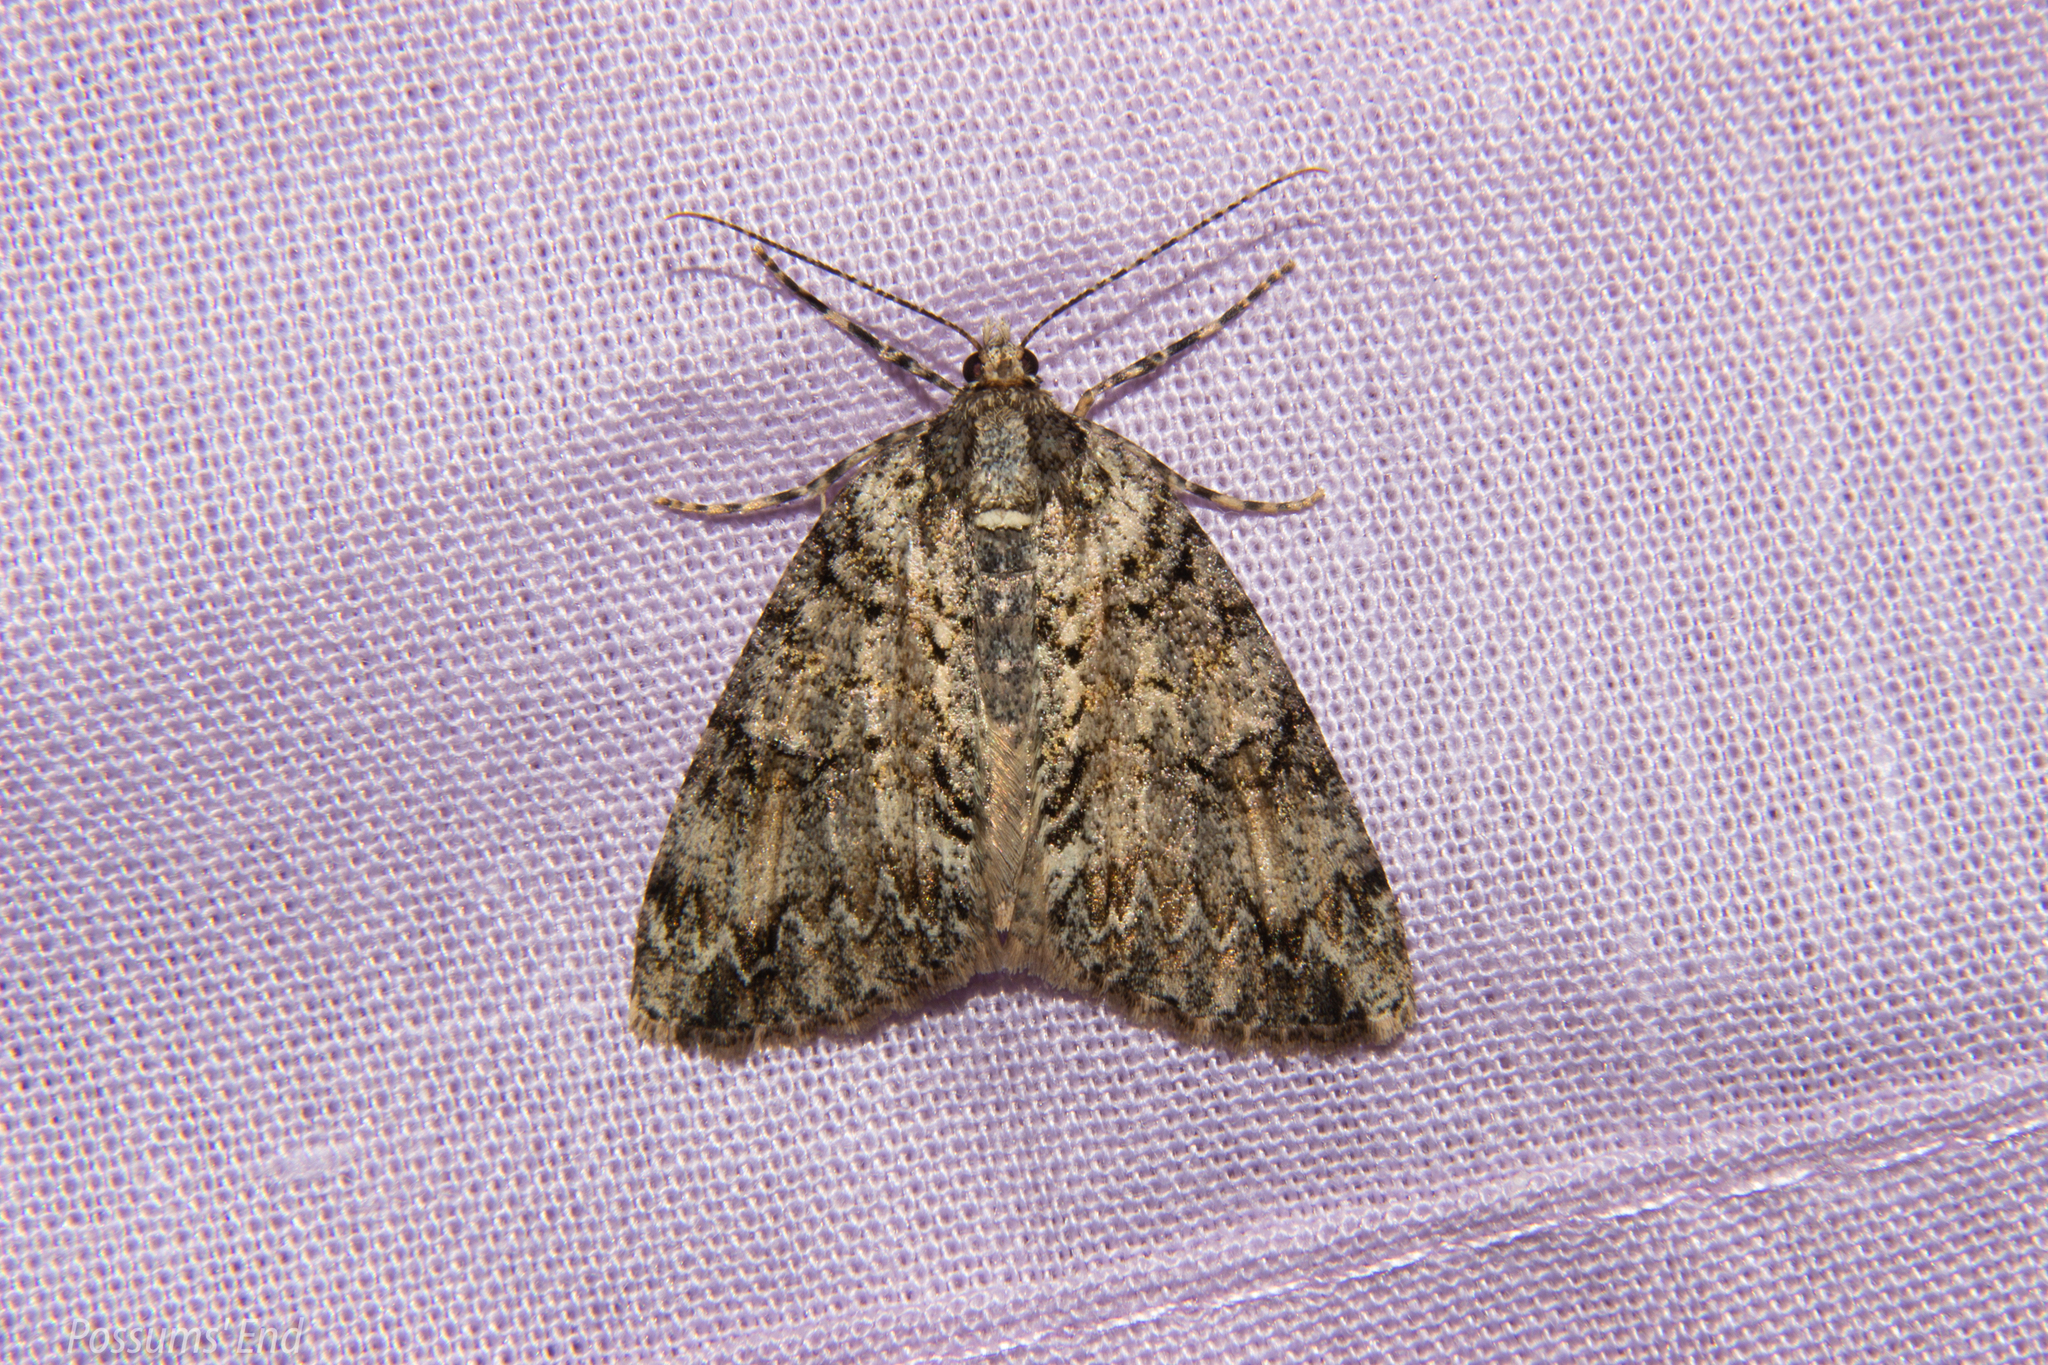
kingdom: Animalia
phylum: Arthropoda
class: Insecta
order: Lepidoptera
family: Geometridae
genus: Pseudocoremia
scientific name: Pseudocoremia suavis
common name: Common forest looper
